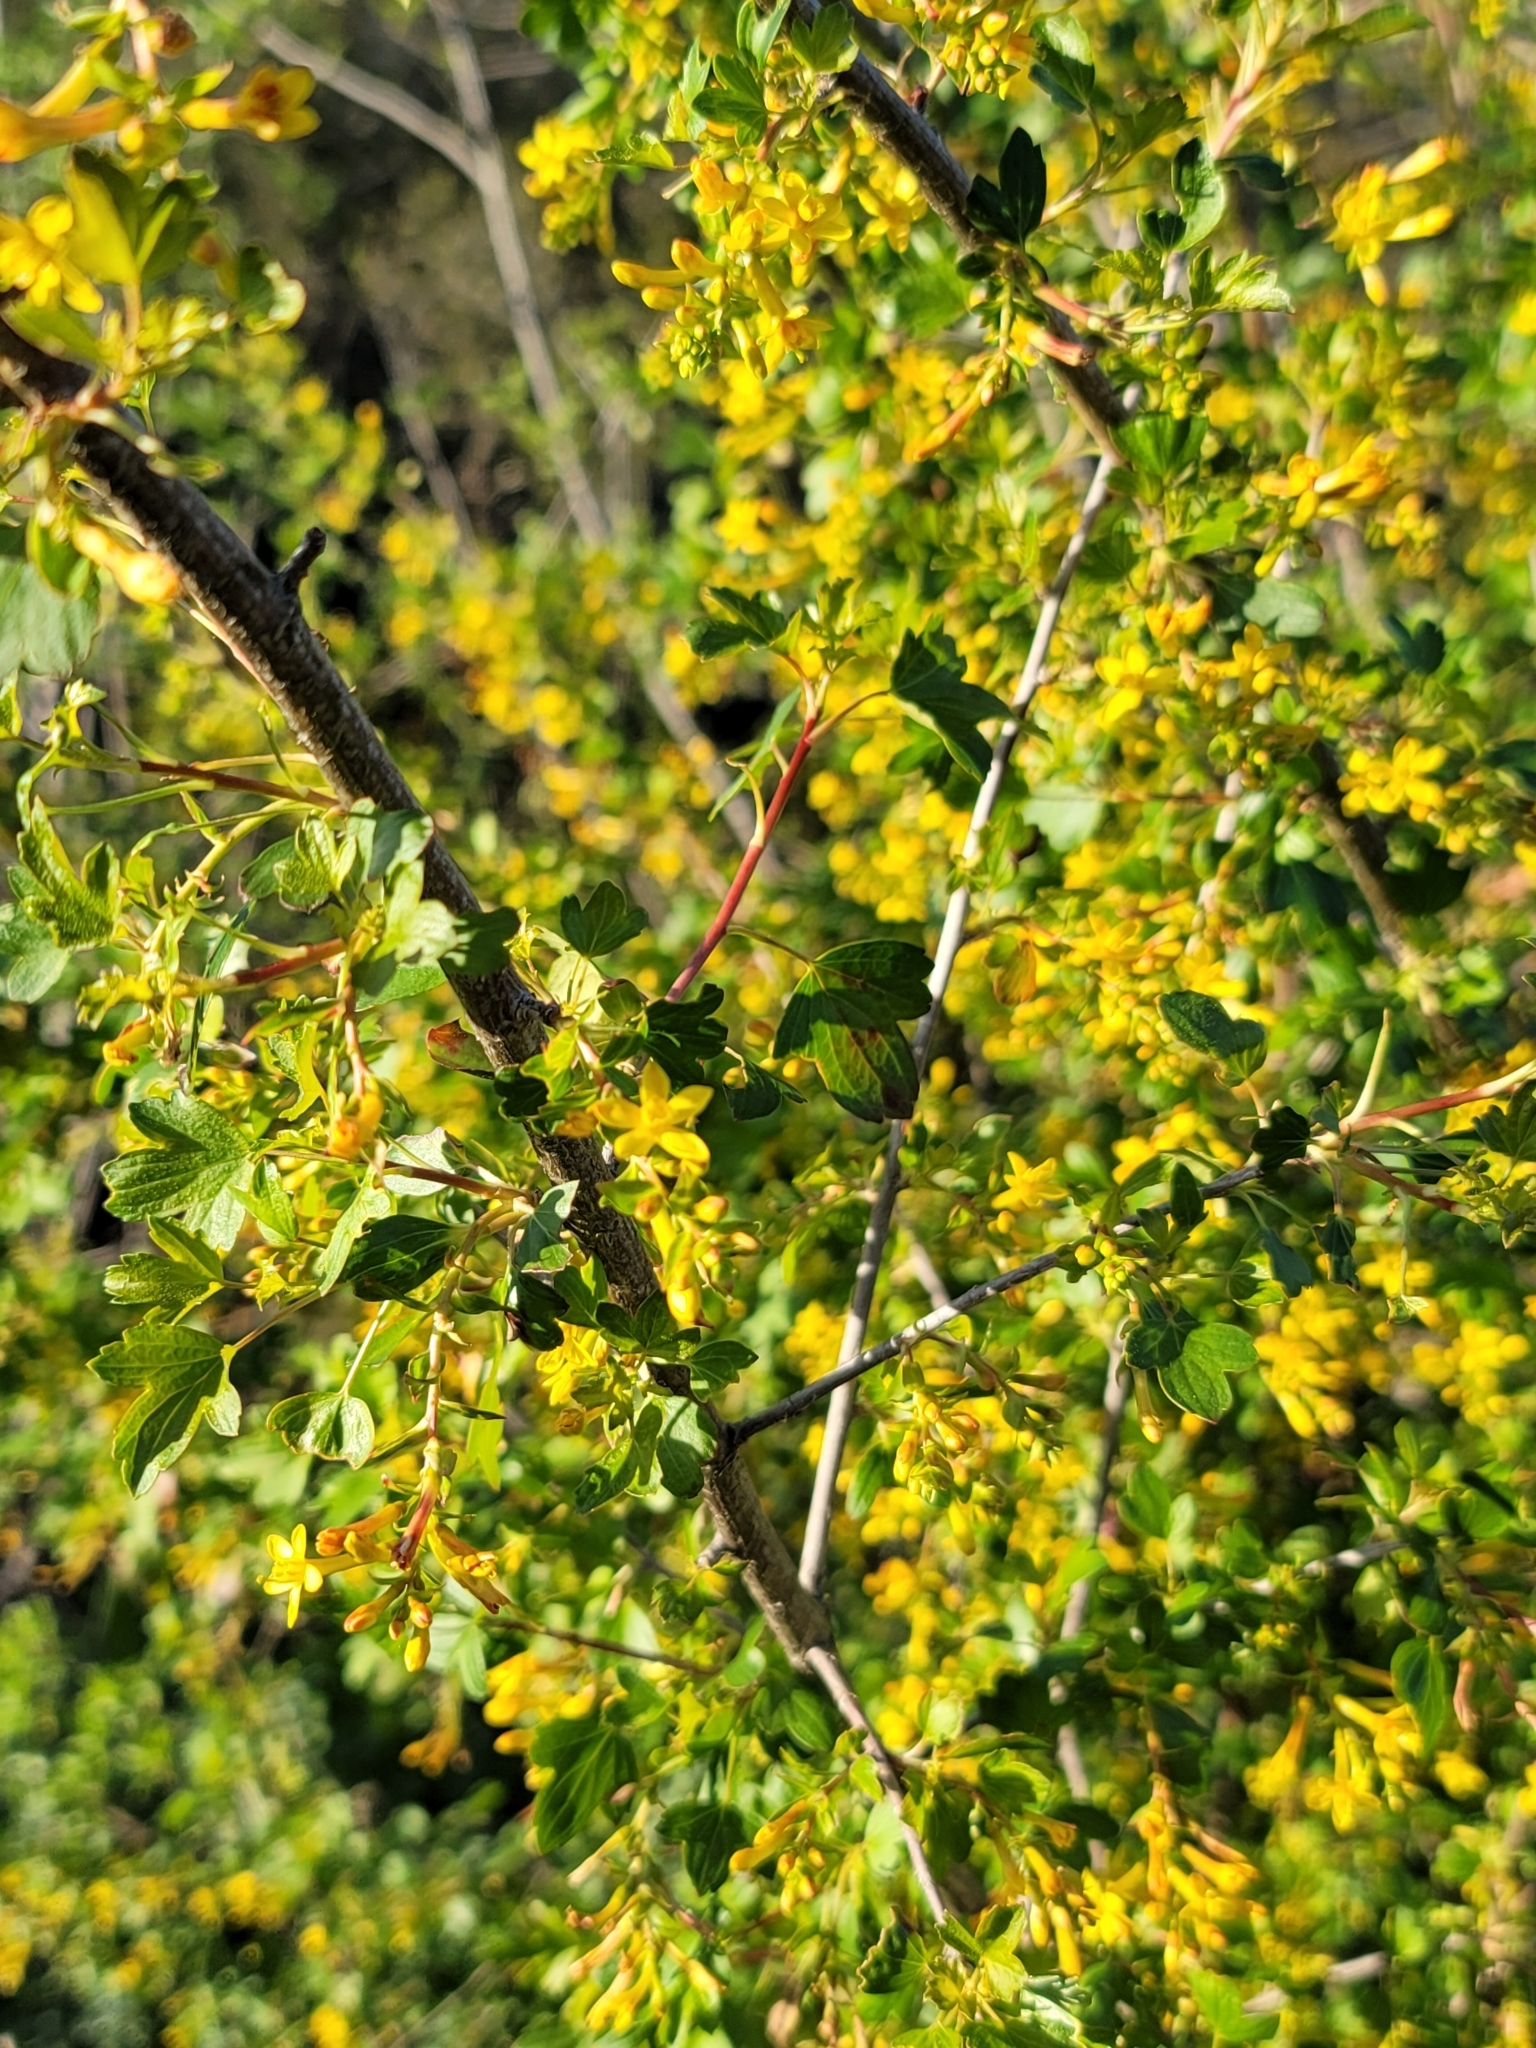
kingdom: Plantae
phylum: Tracheophyta
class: Magnoliopsida
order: Saxifragales
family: Grossulariaceae
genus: Ribes
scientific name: Ribes aureum
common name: Golden currant
